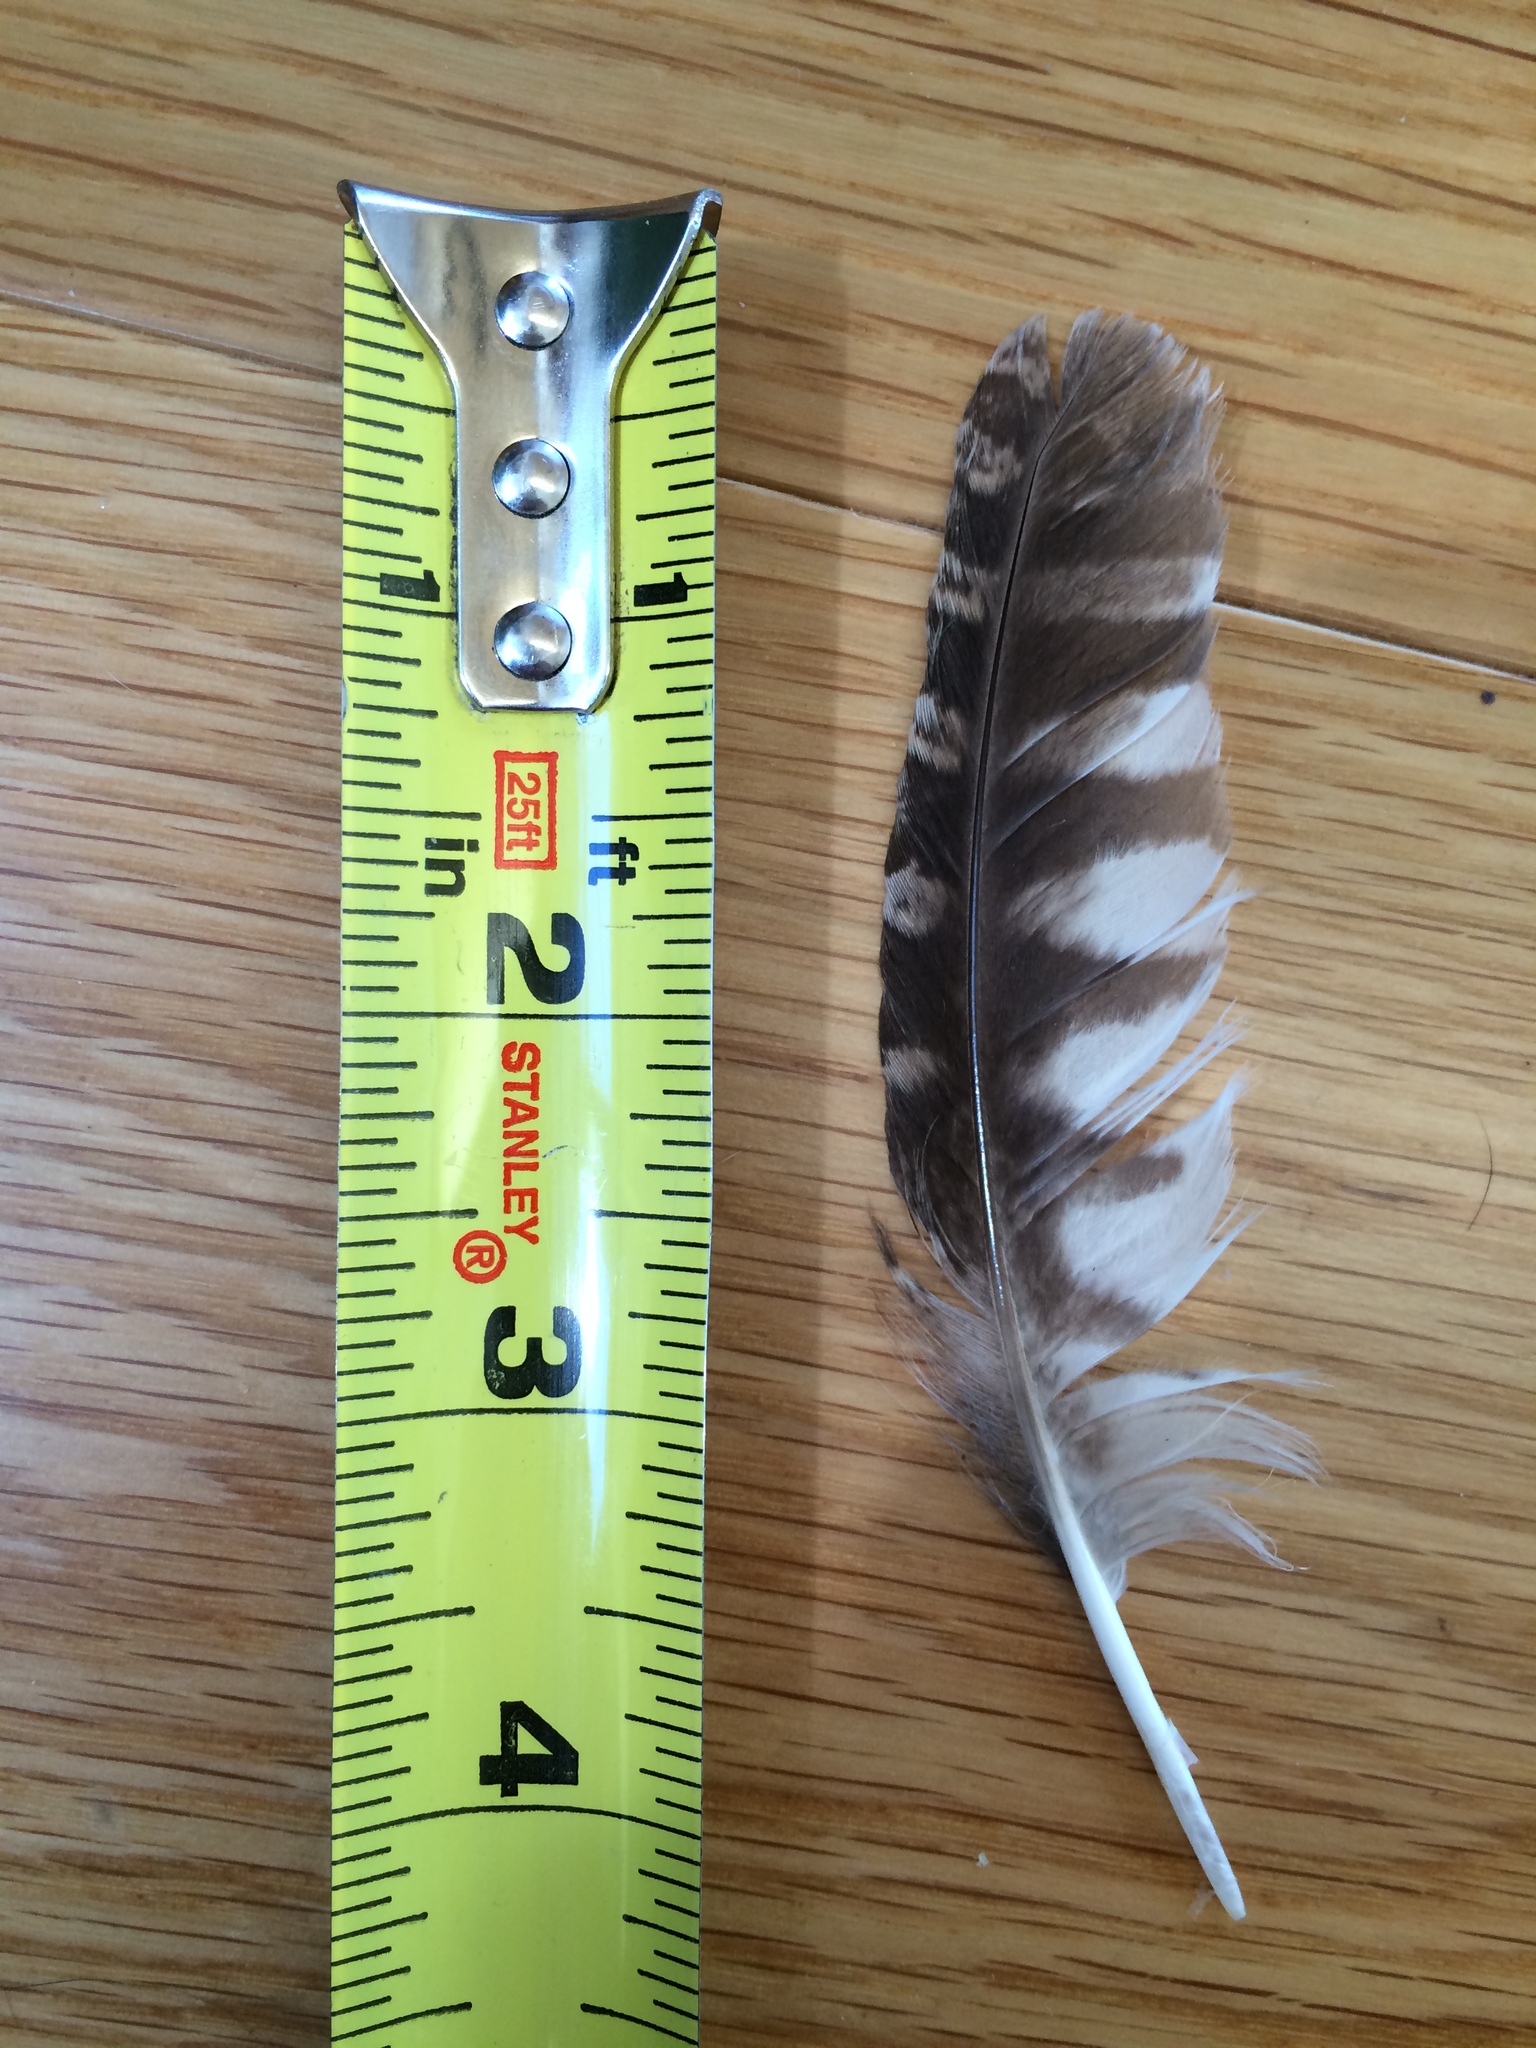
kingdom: Animalia
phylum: Chordata
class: Aves
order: Strigiformes
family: Strigidae
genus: Megascops
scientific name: Megascops kennicottii
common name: Western screech-owl
